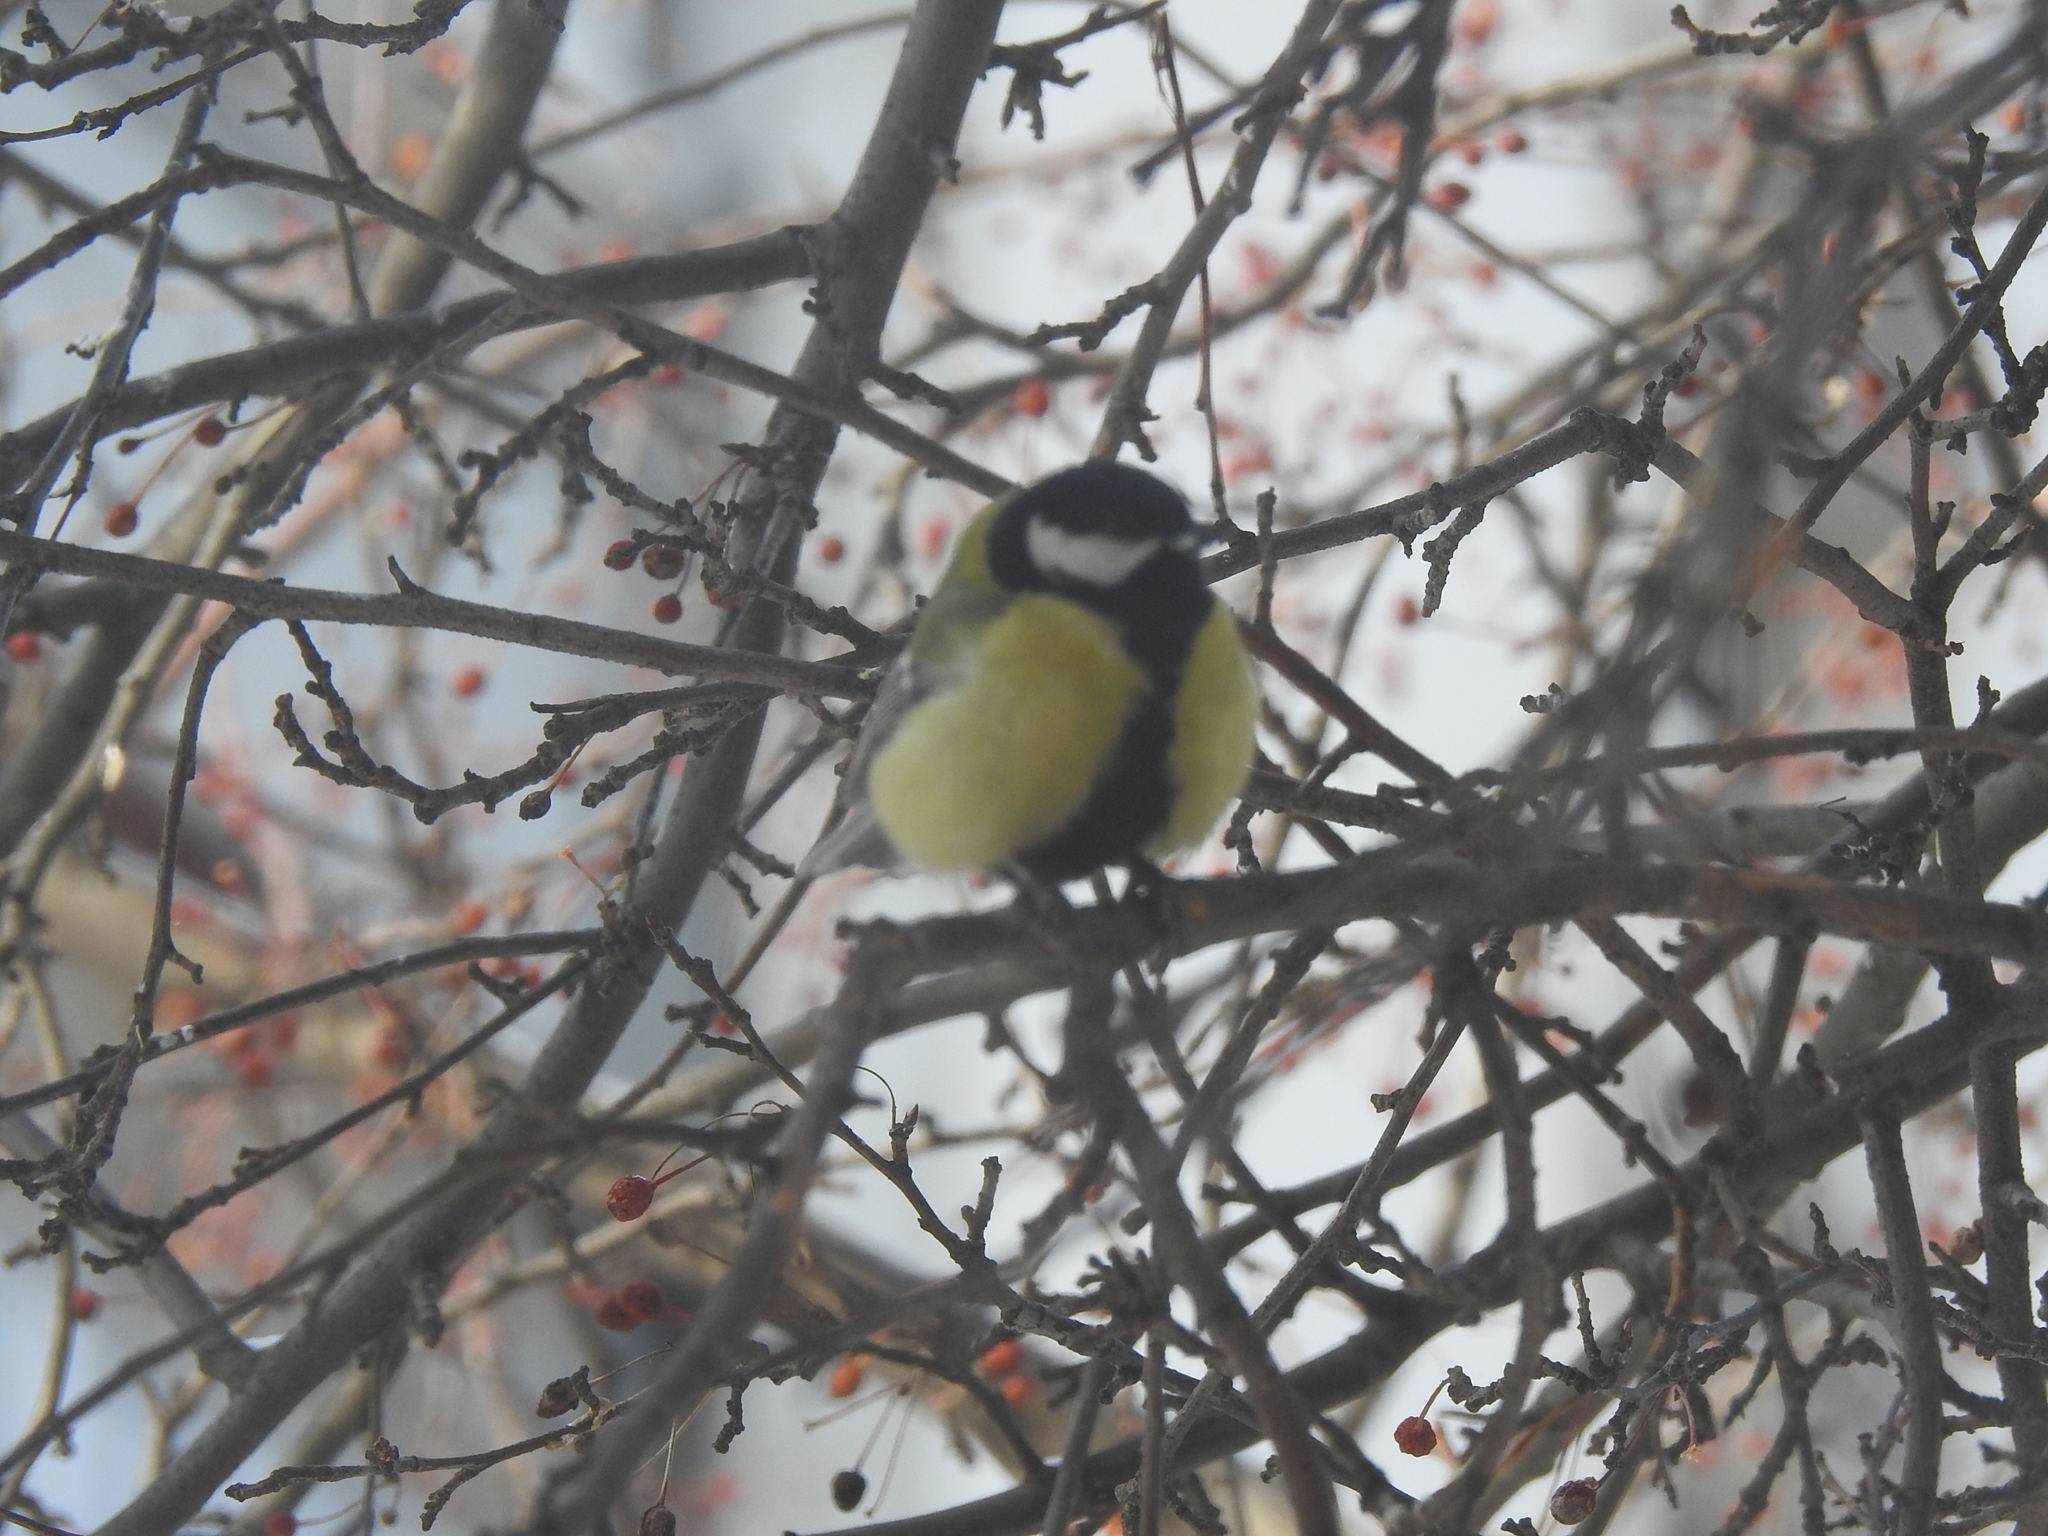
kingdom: Animalia
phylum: Chordata
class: Aves
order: Passeriformes
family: Paridae
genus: Parus
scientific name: Parus major
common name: Great tit
